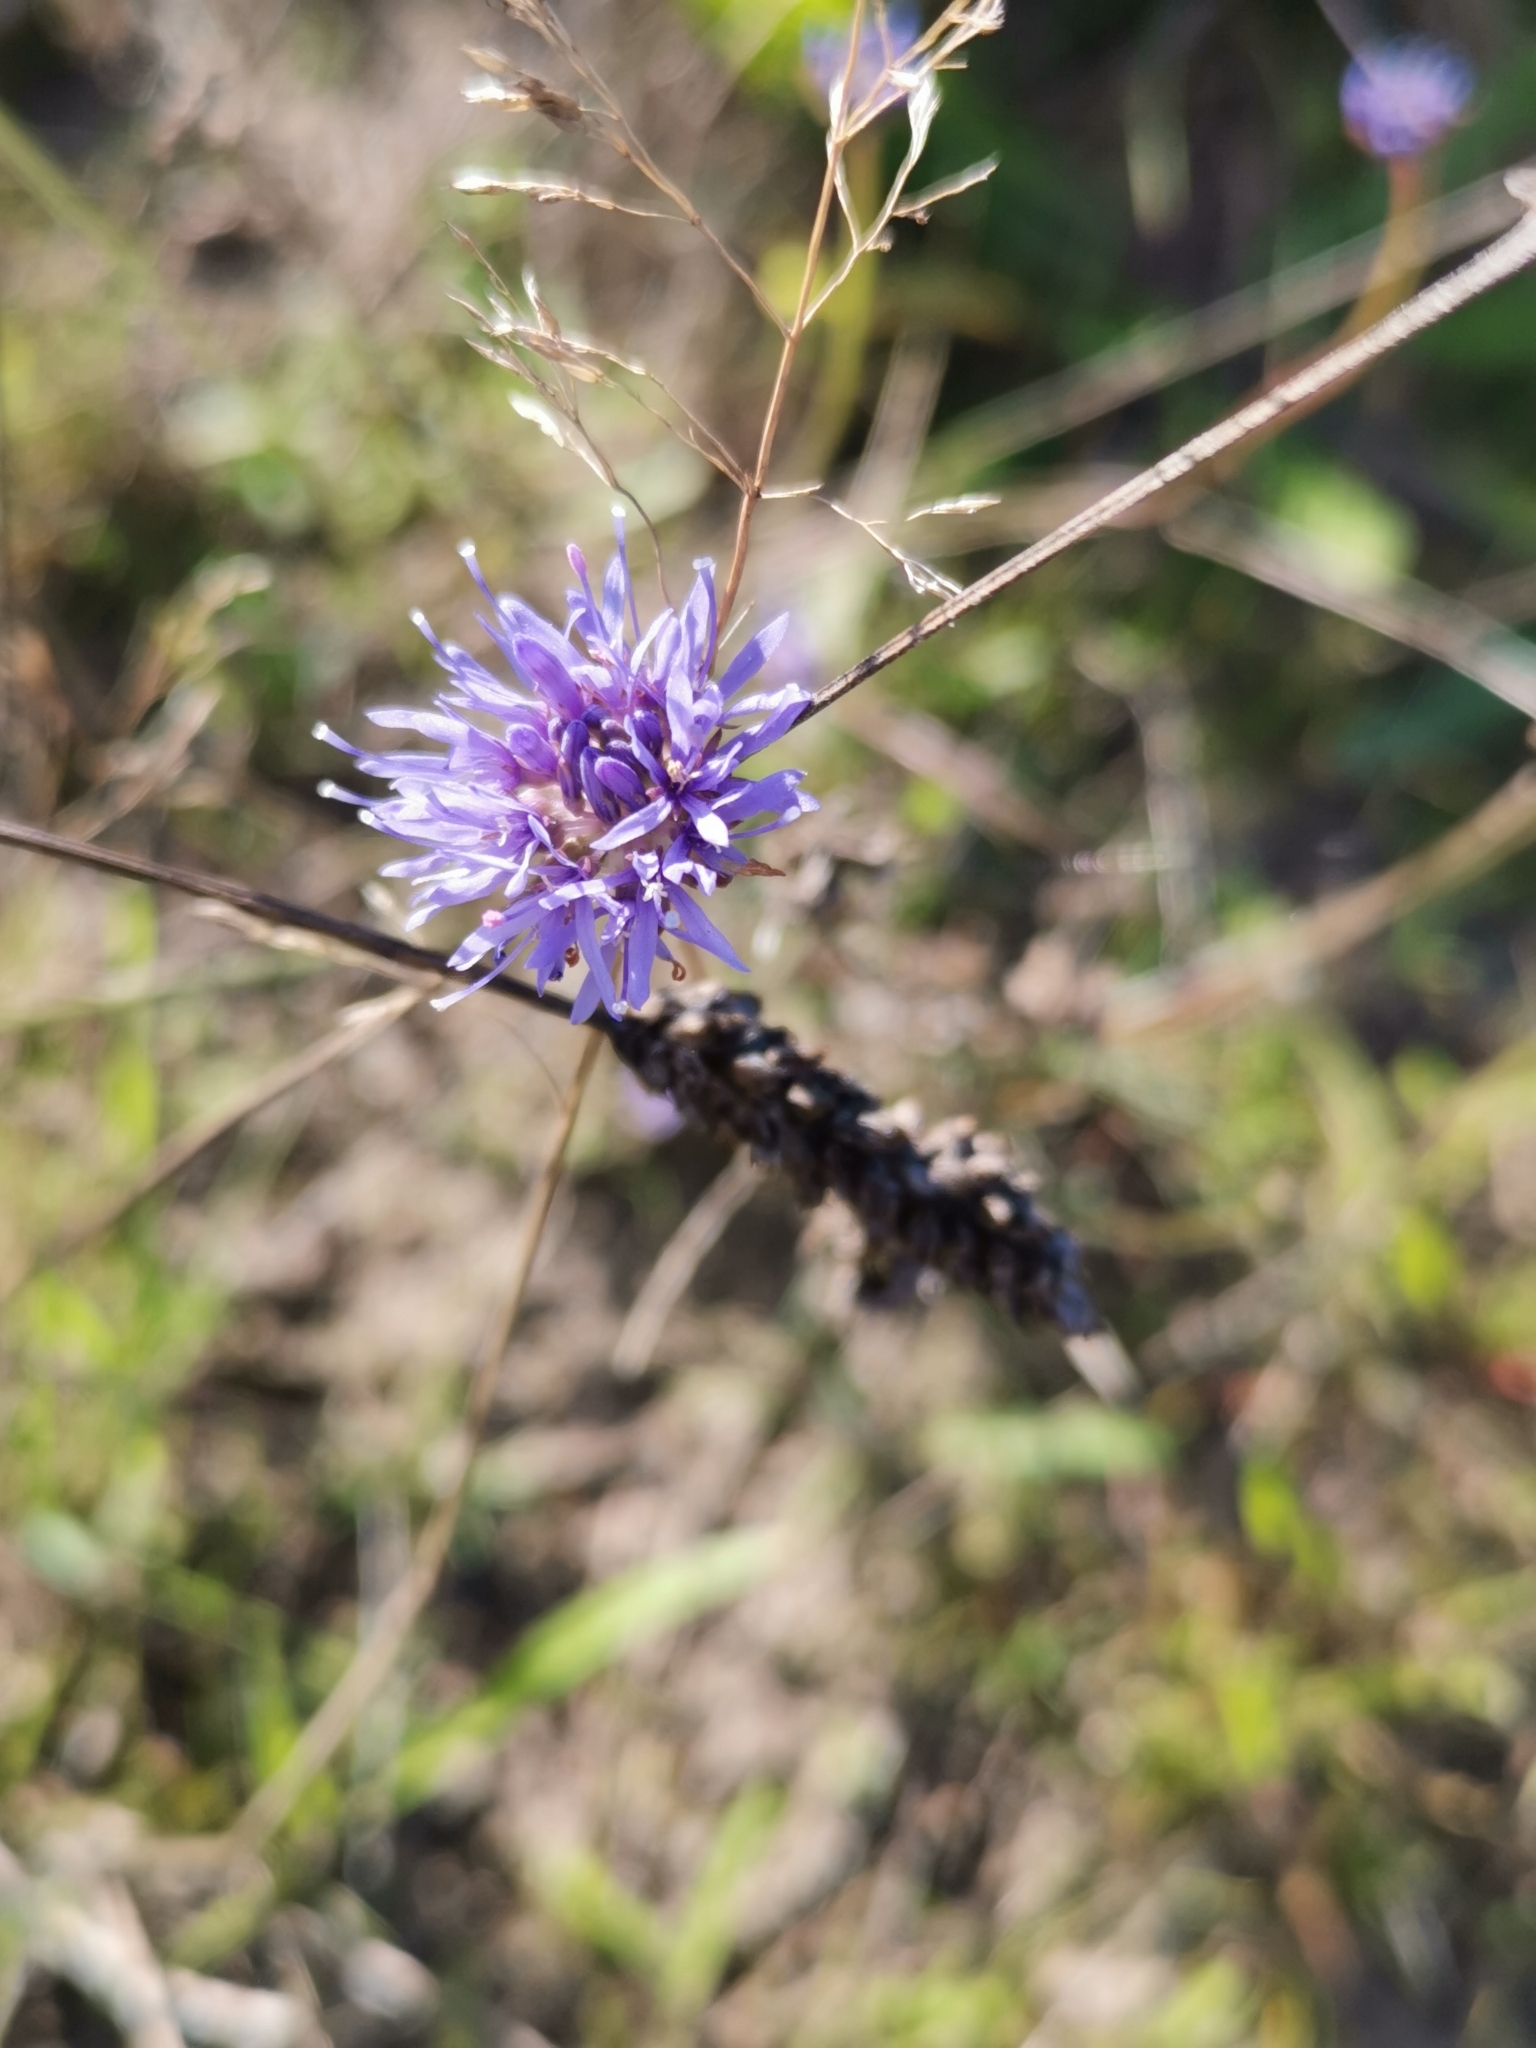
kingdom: Plantae
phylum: Tracheophyta
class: Magnoliopsida
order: Asterales
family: Campanulaceae
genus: Jasione
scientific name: Jasione montana
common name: Sheep's-bit
